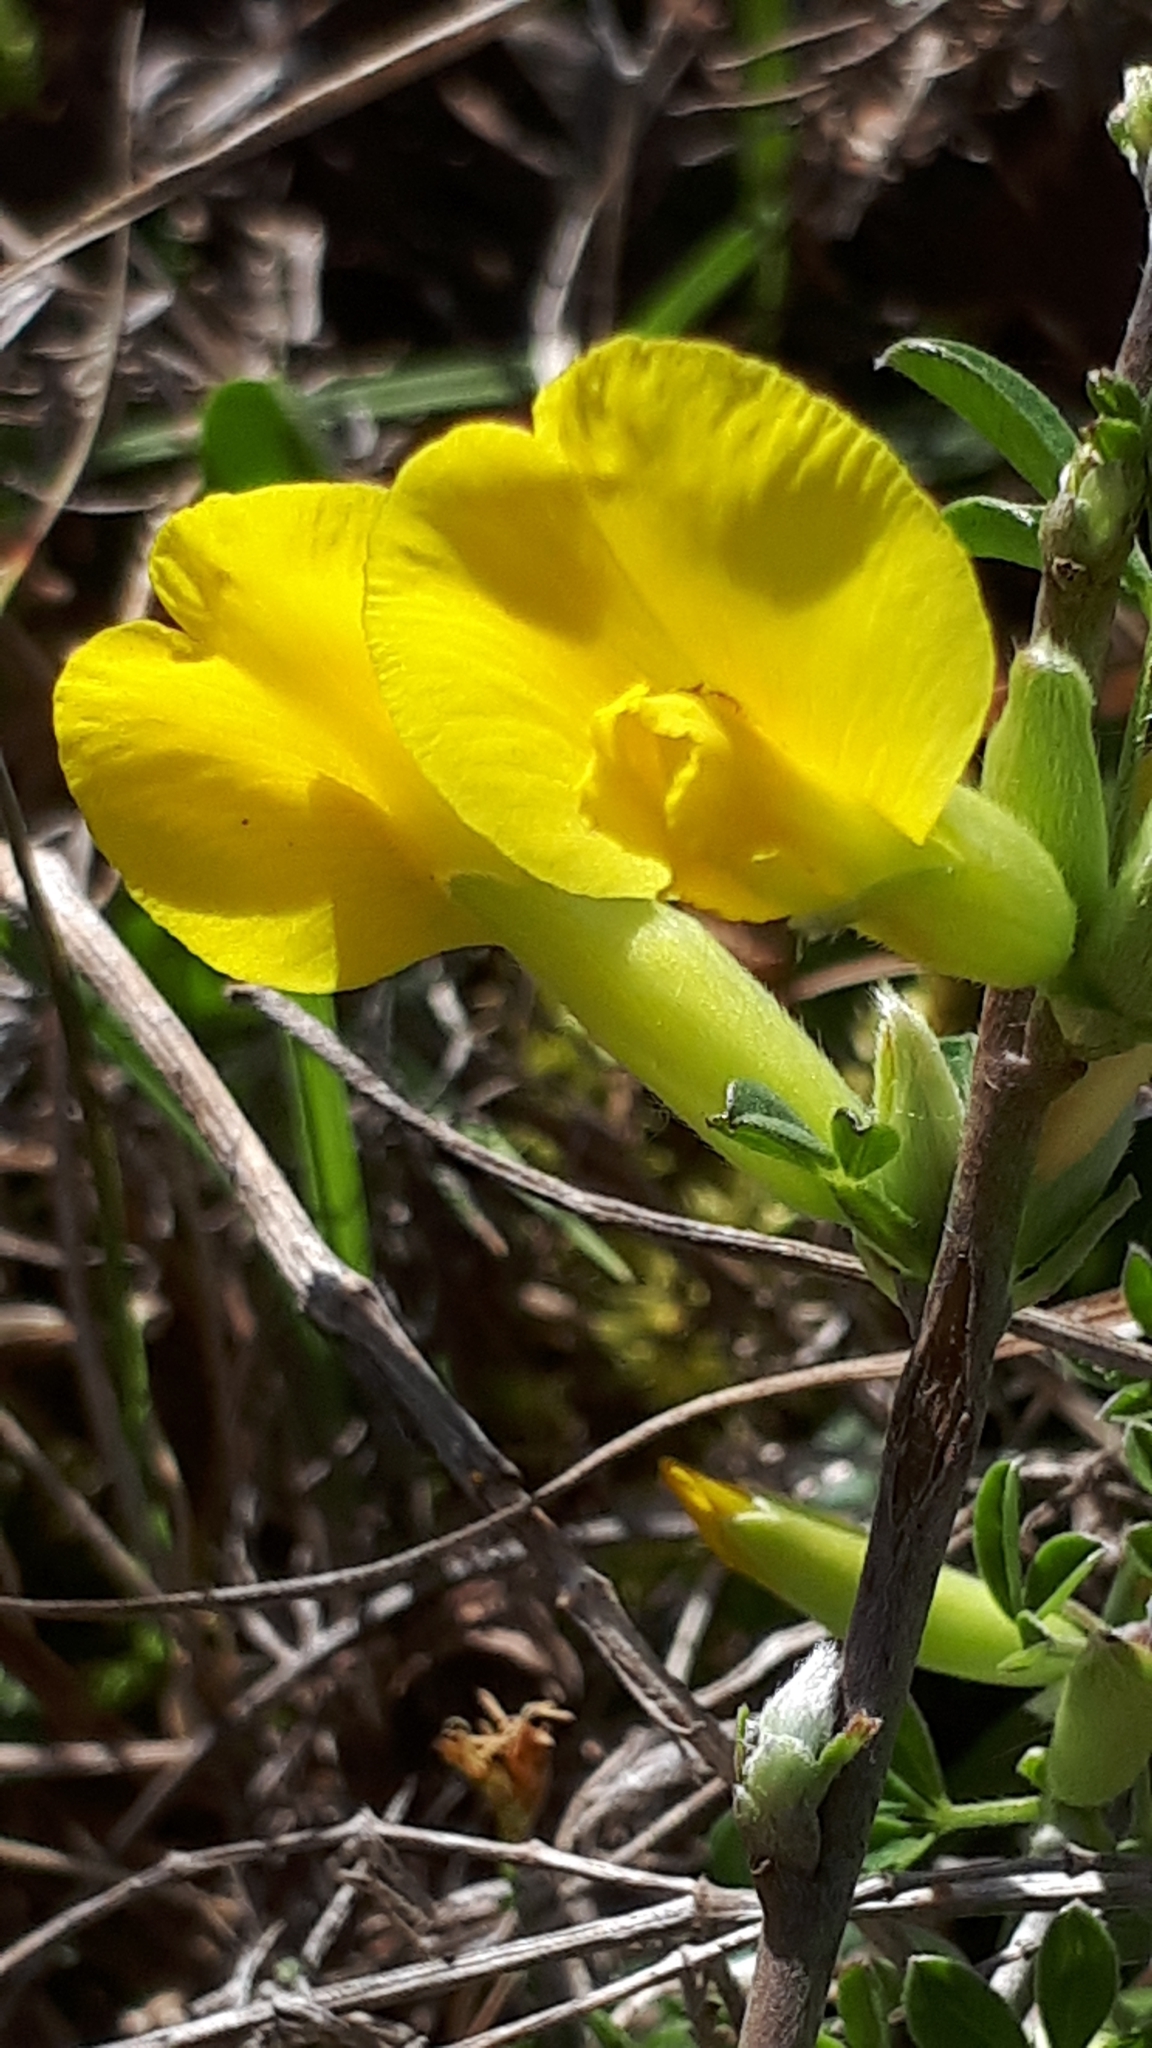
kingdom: Plantae
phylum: Tracheophyta
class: Magnoliopsida
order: Fabales
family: Fabaceae
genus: Chamaecytisus
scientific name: Chamaecytisus ratisbonensis
